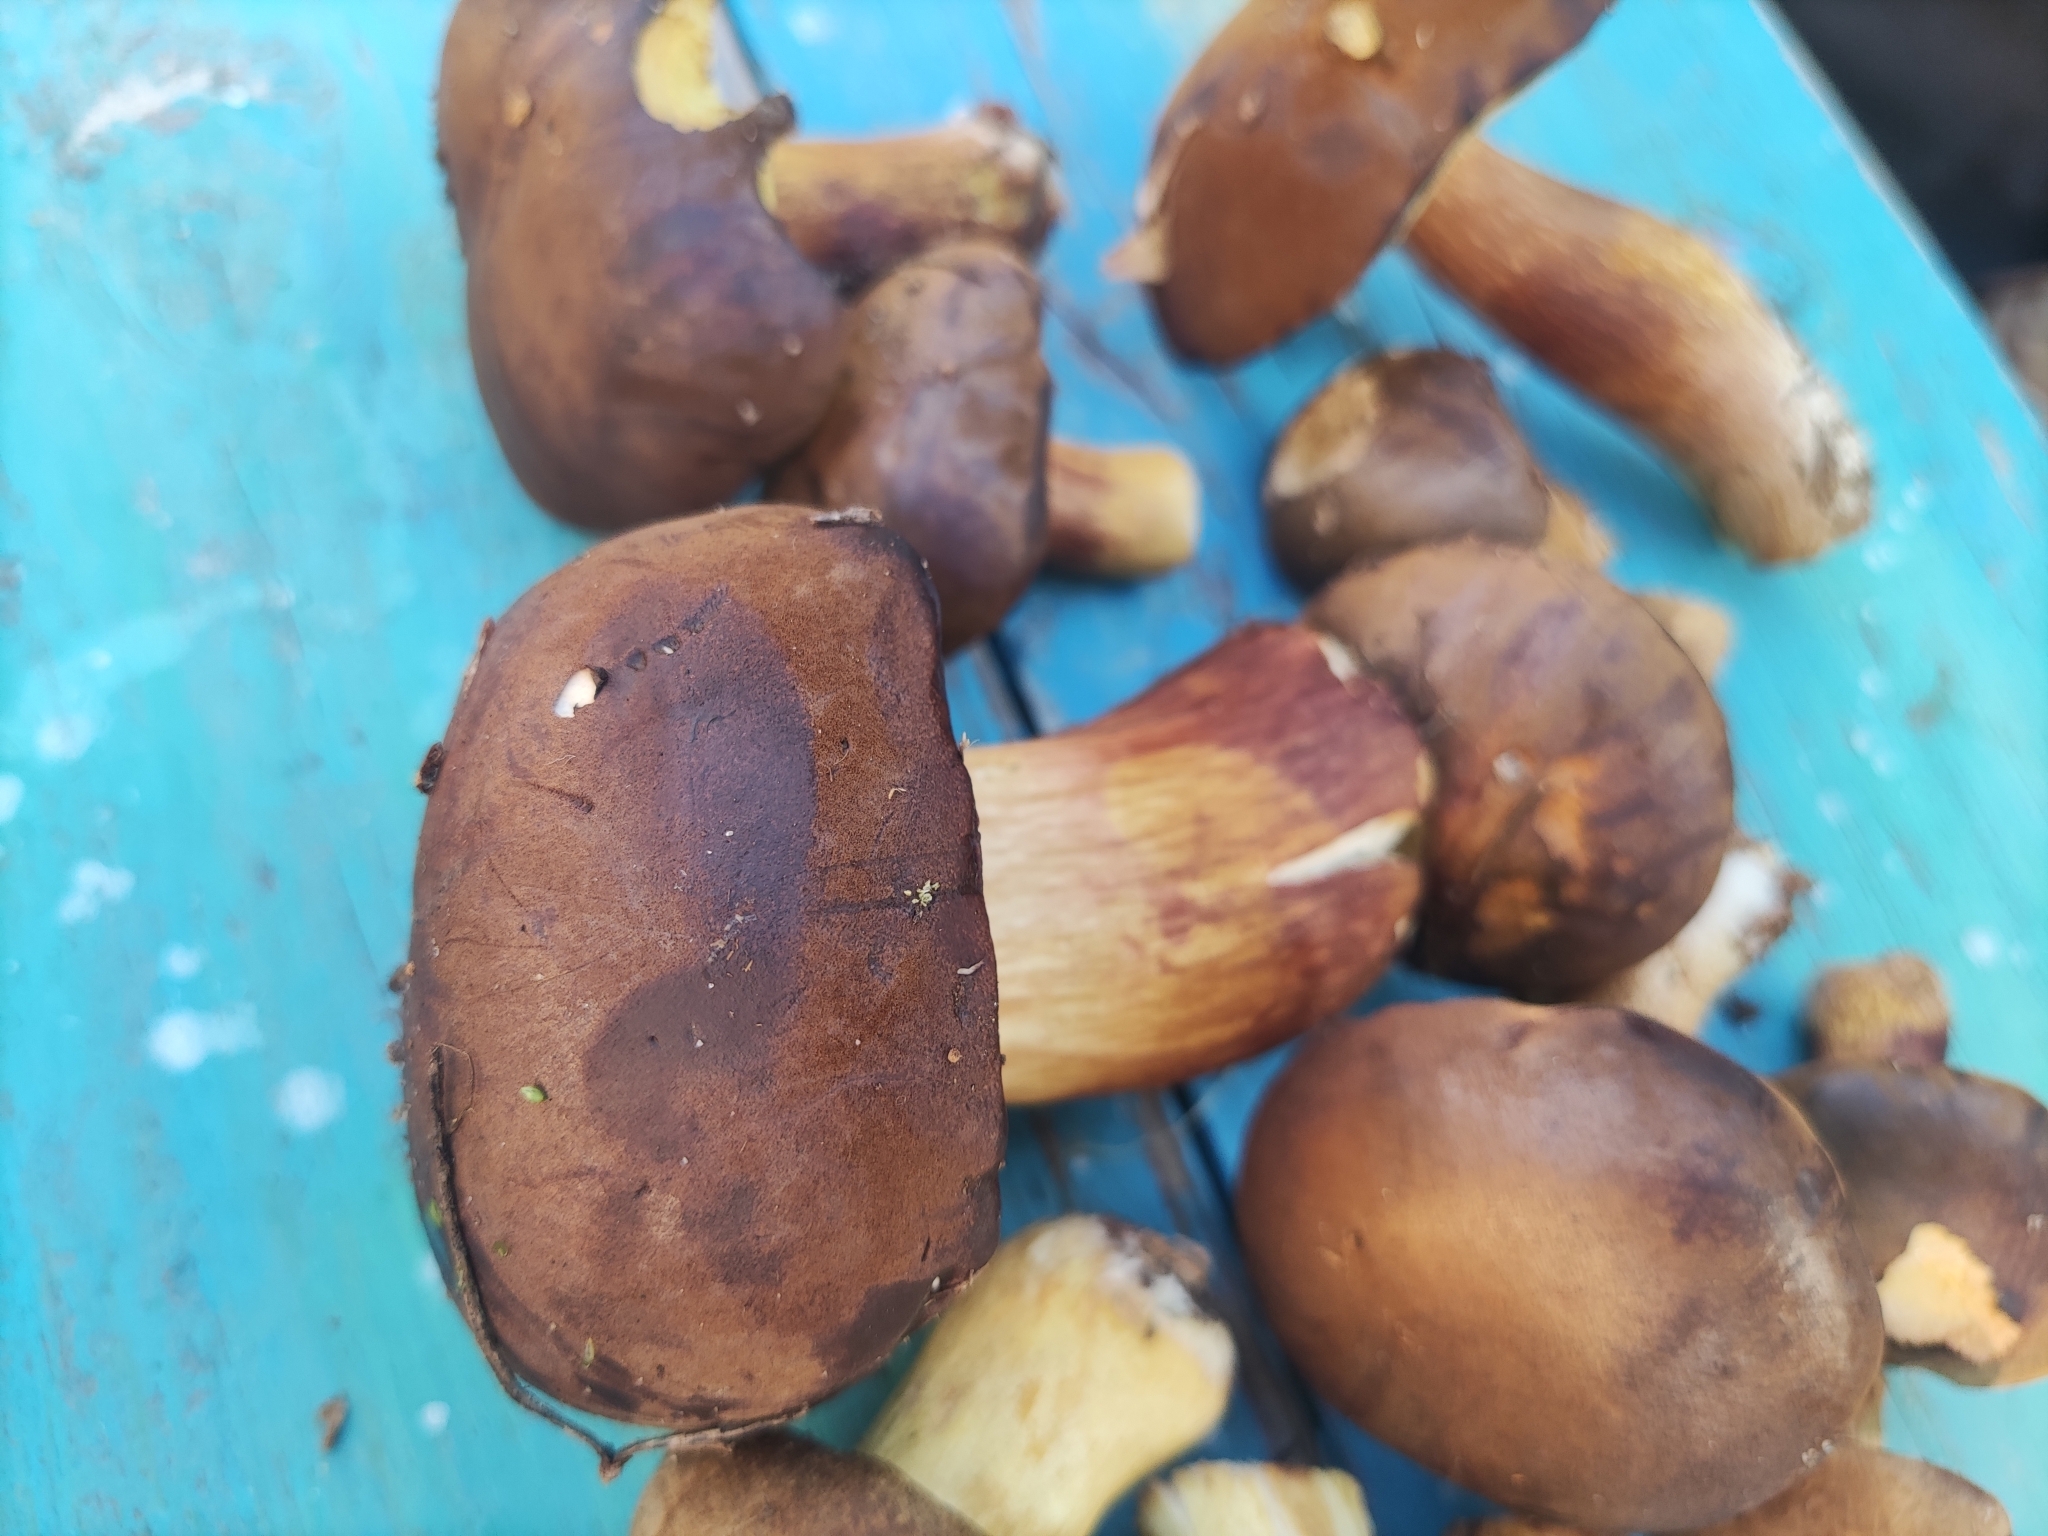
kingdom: Fungi
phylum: Basidiomycota
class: Agaricomycetes
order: Boletales
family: Boletaceae
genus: Imleria
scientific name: Imleria badia
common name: Bay bolete
